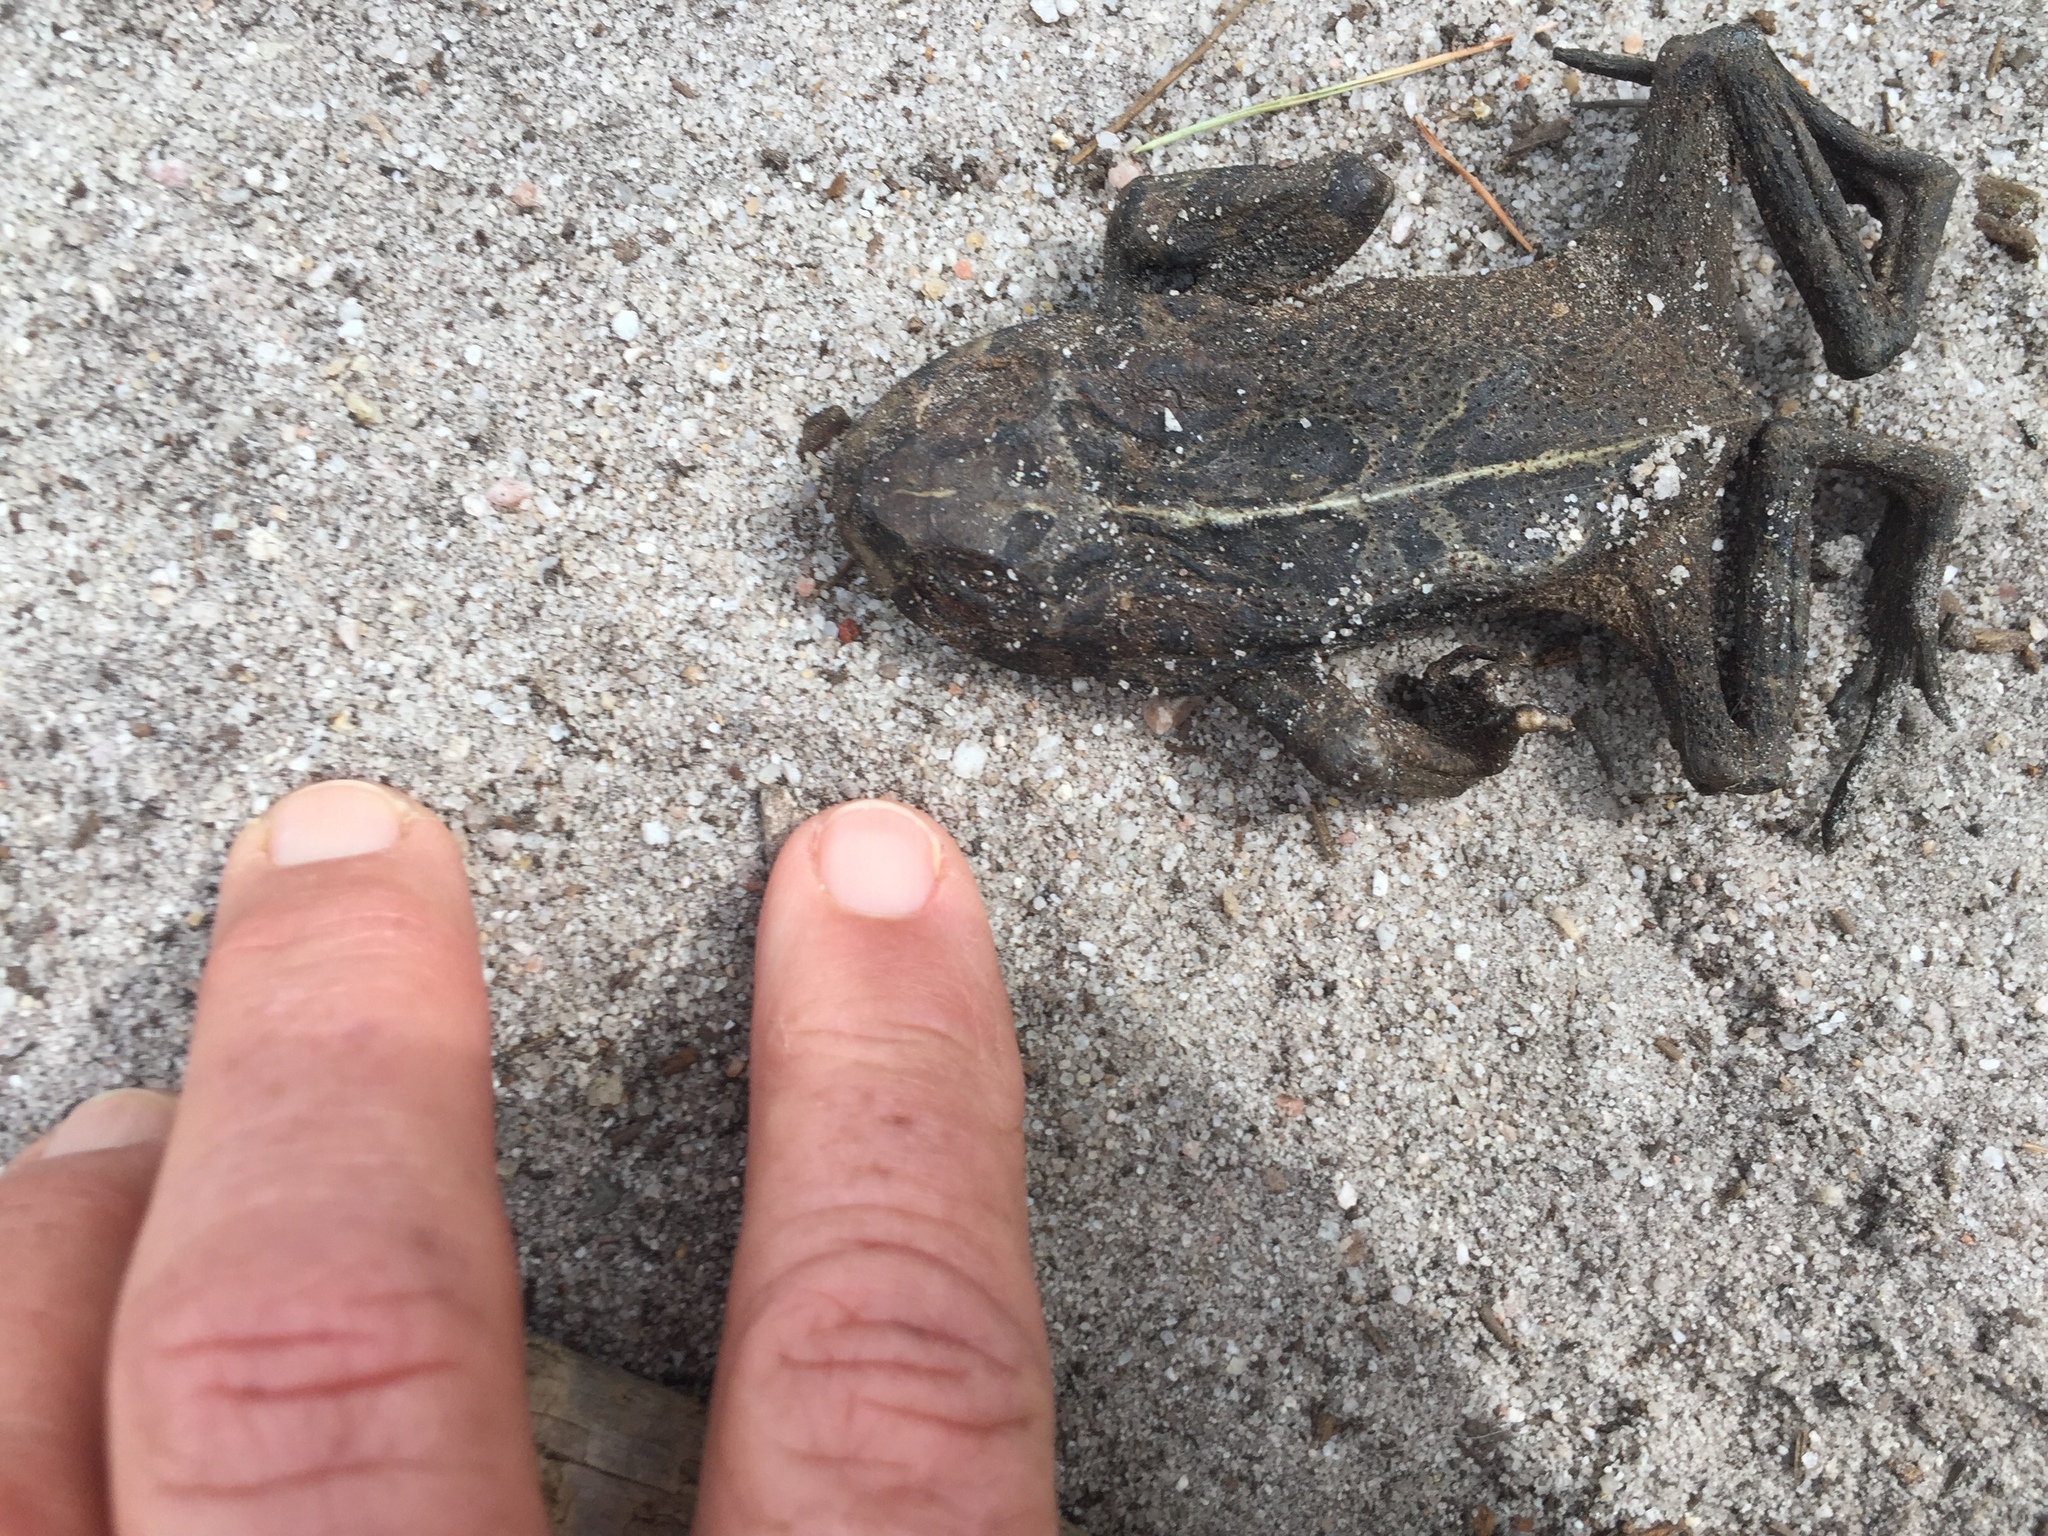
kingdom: Animalia
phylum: Chordata
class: Amphibia
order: Anura
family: Bufonidae
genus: Sclerophrys
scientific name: Sclerophrys pantherina
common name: Panther toad
